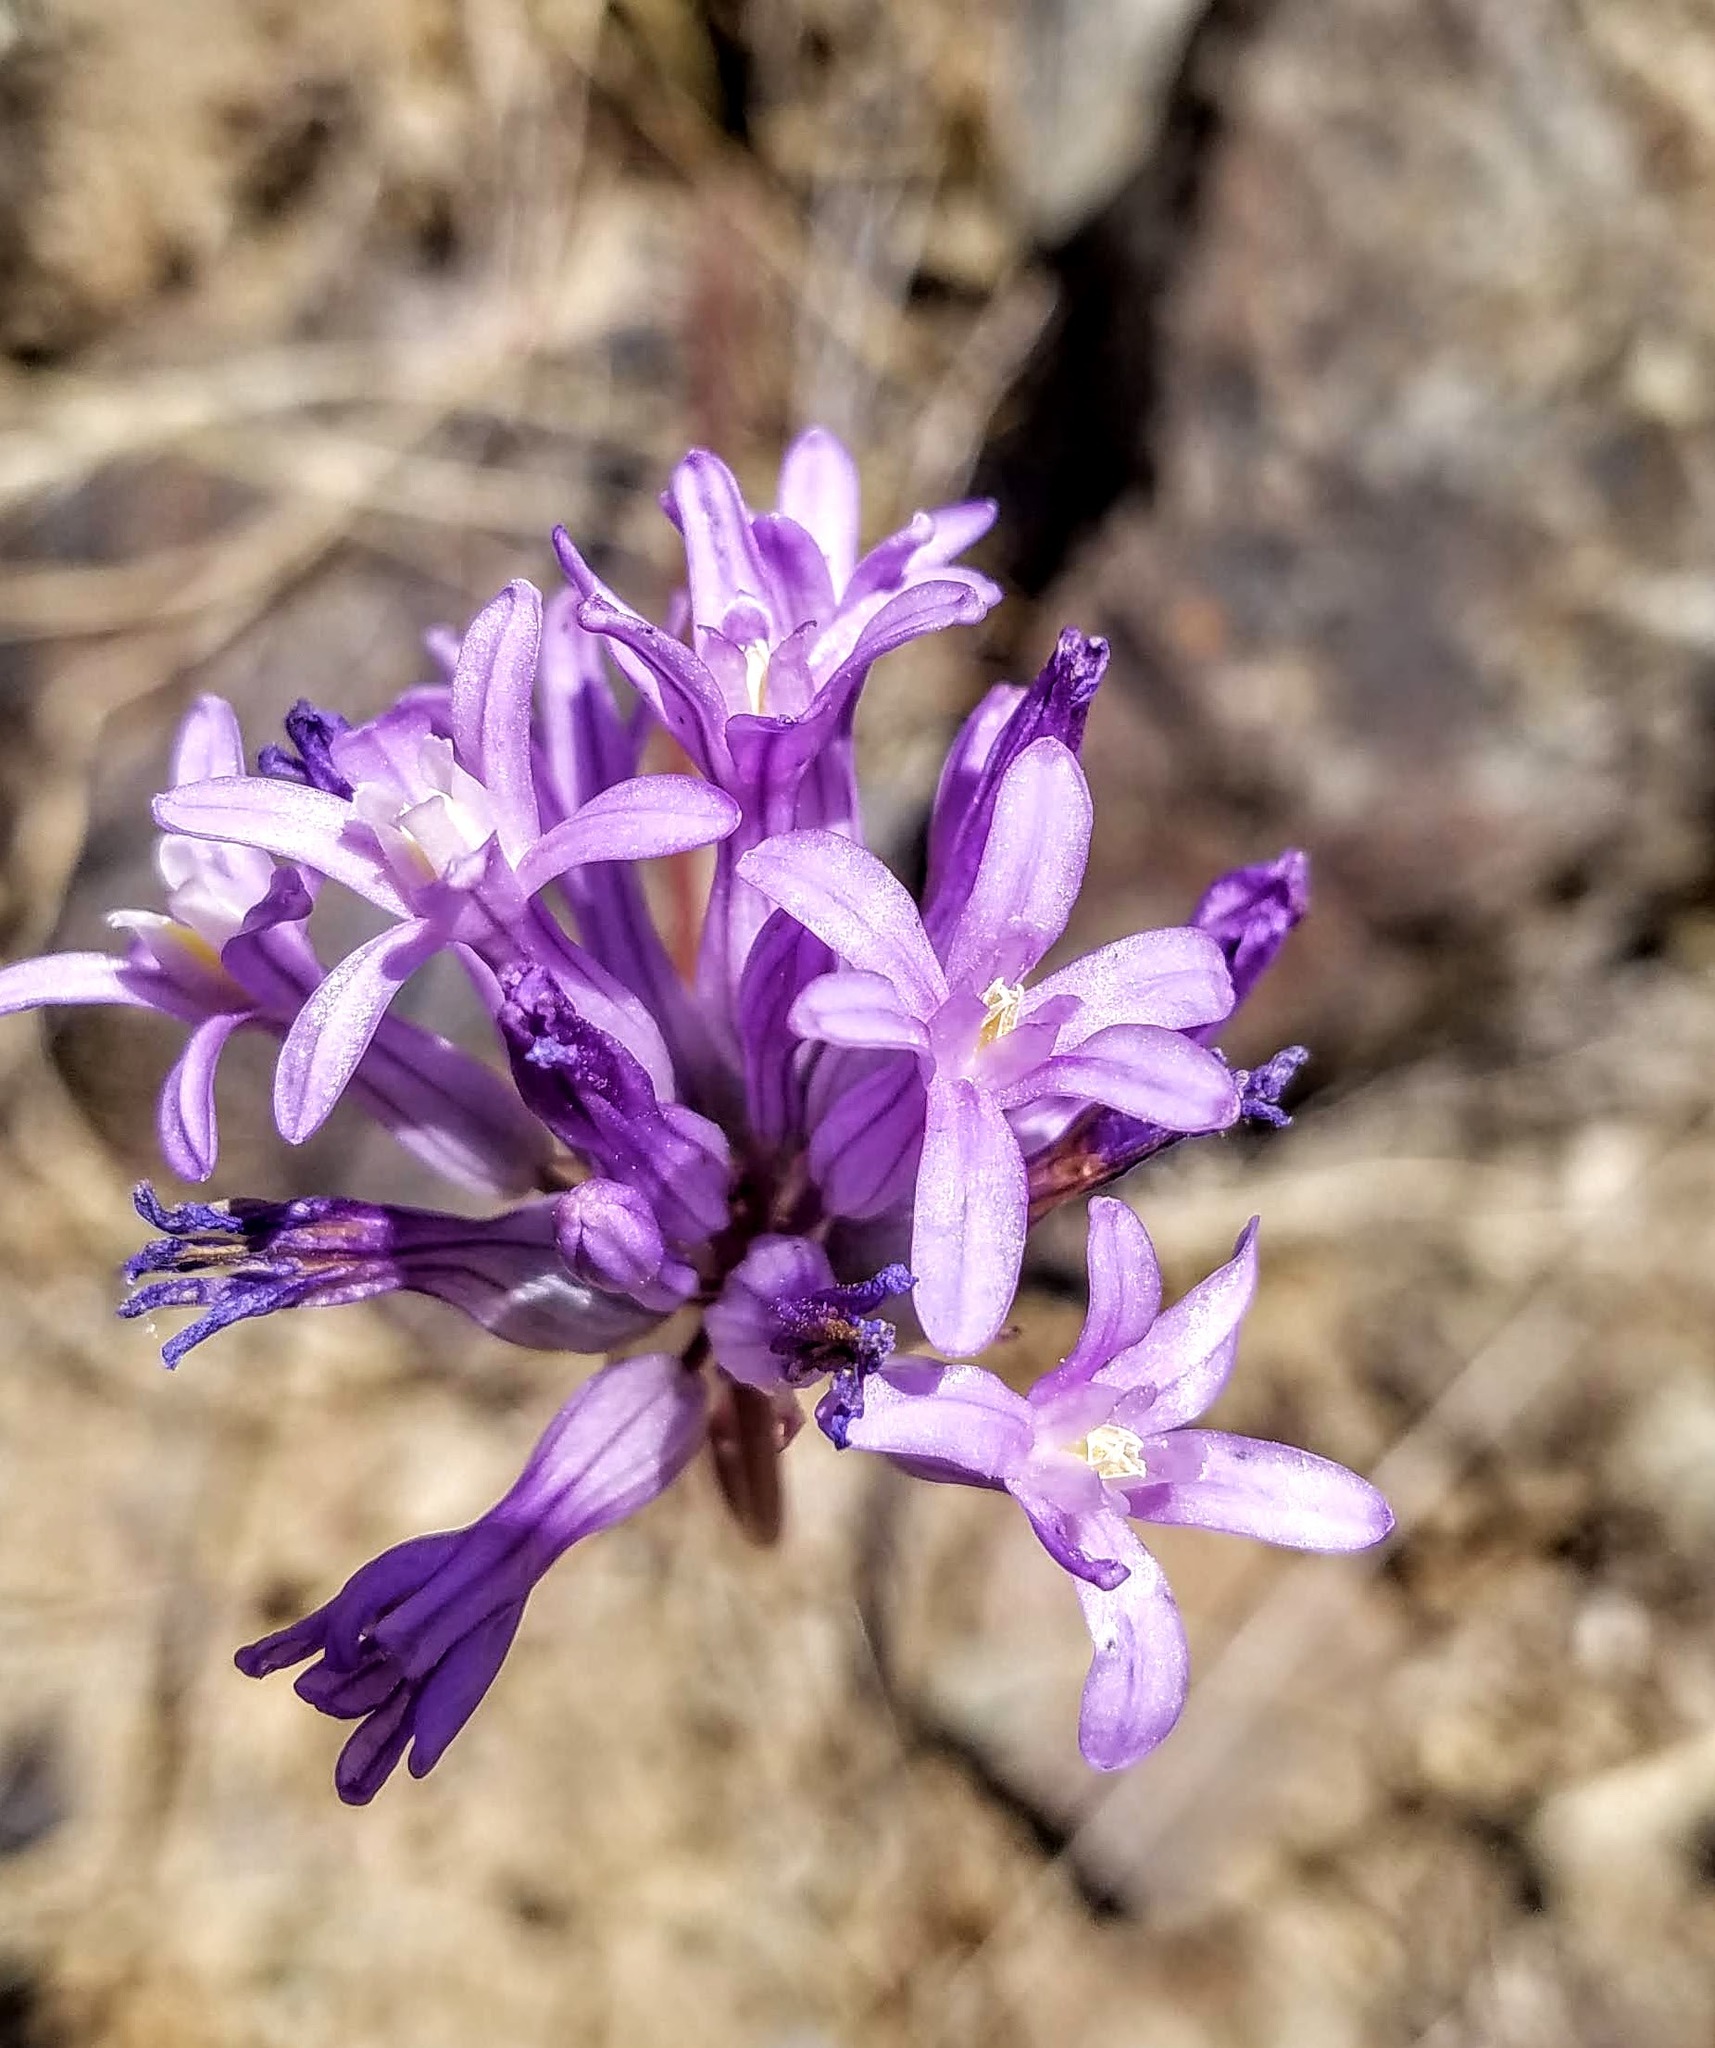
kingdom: Plantae
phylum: Tracheophyta
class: Liliopsida
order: Asparagales
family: Asparagaceae
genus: Dichelostemma
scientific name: Dichelostemma multiflorum
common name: Round-tooth ookow
